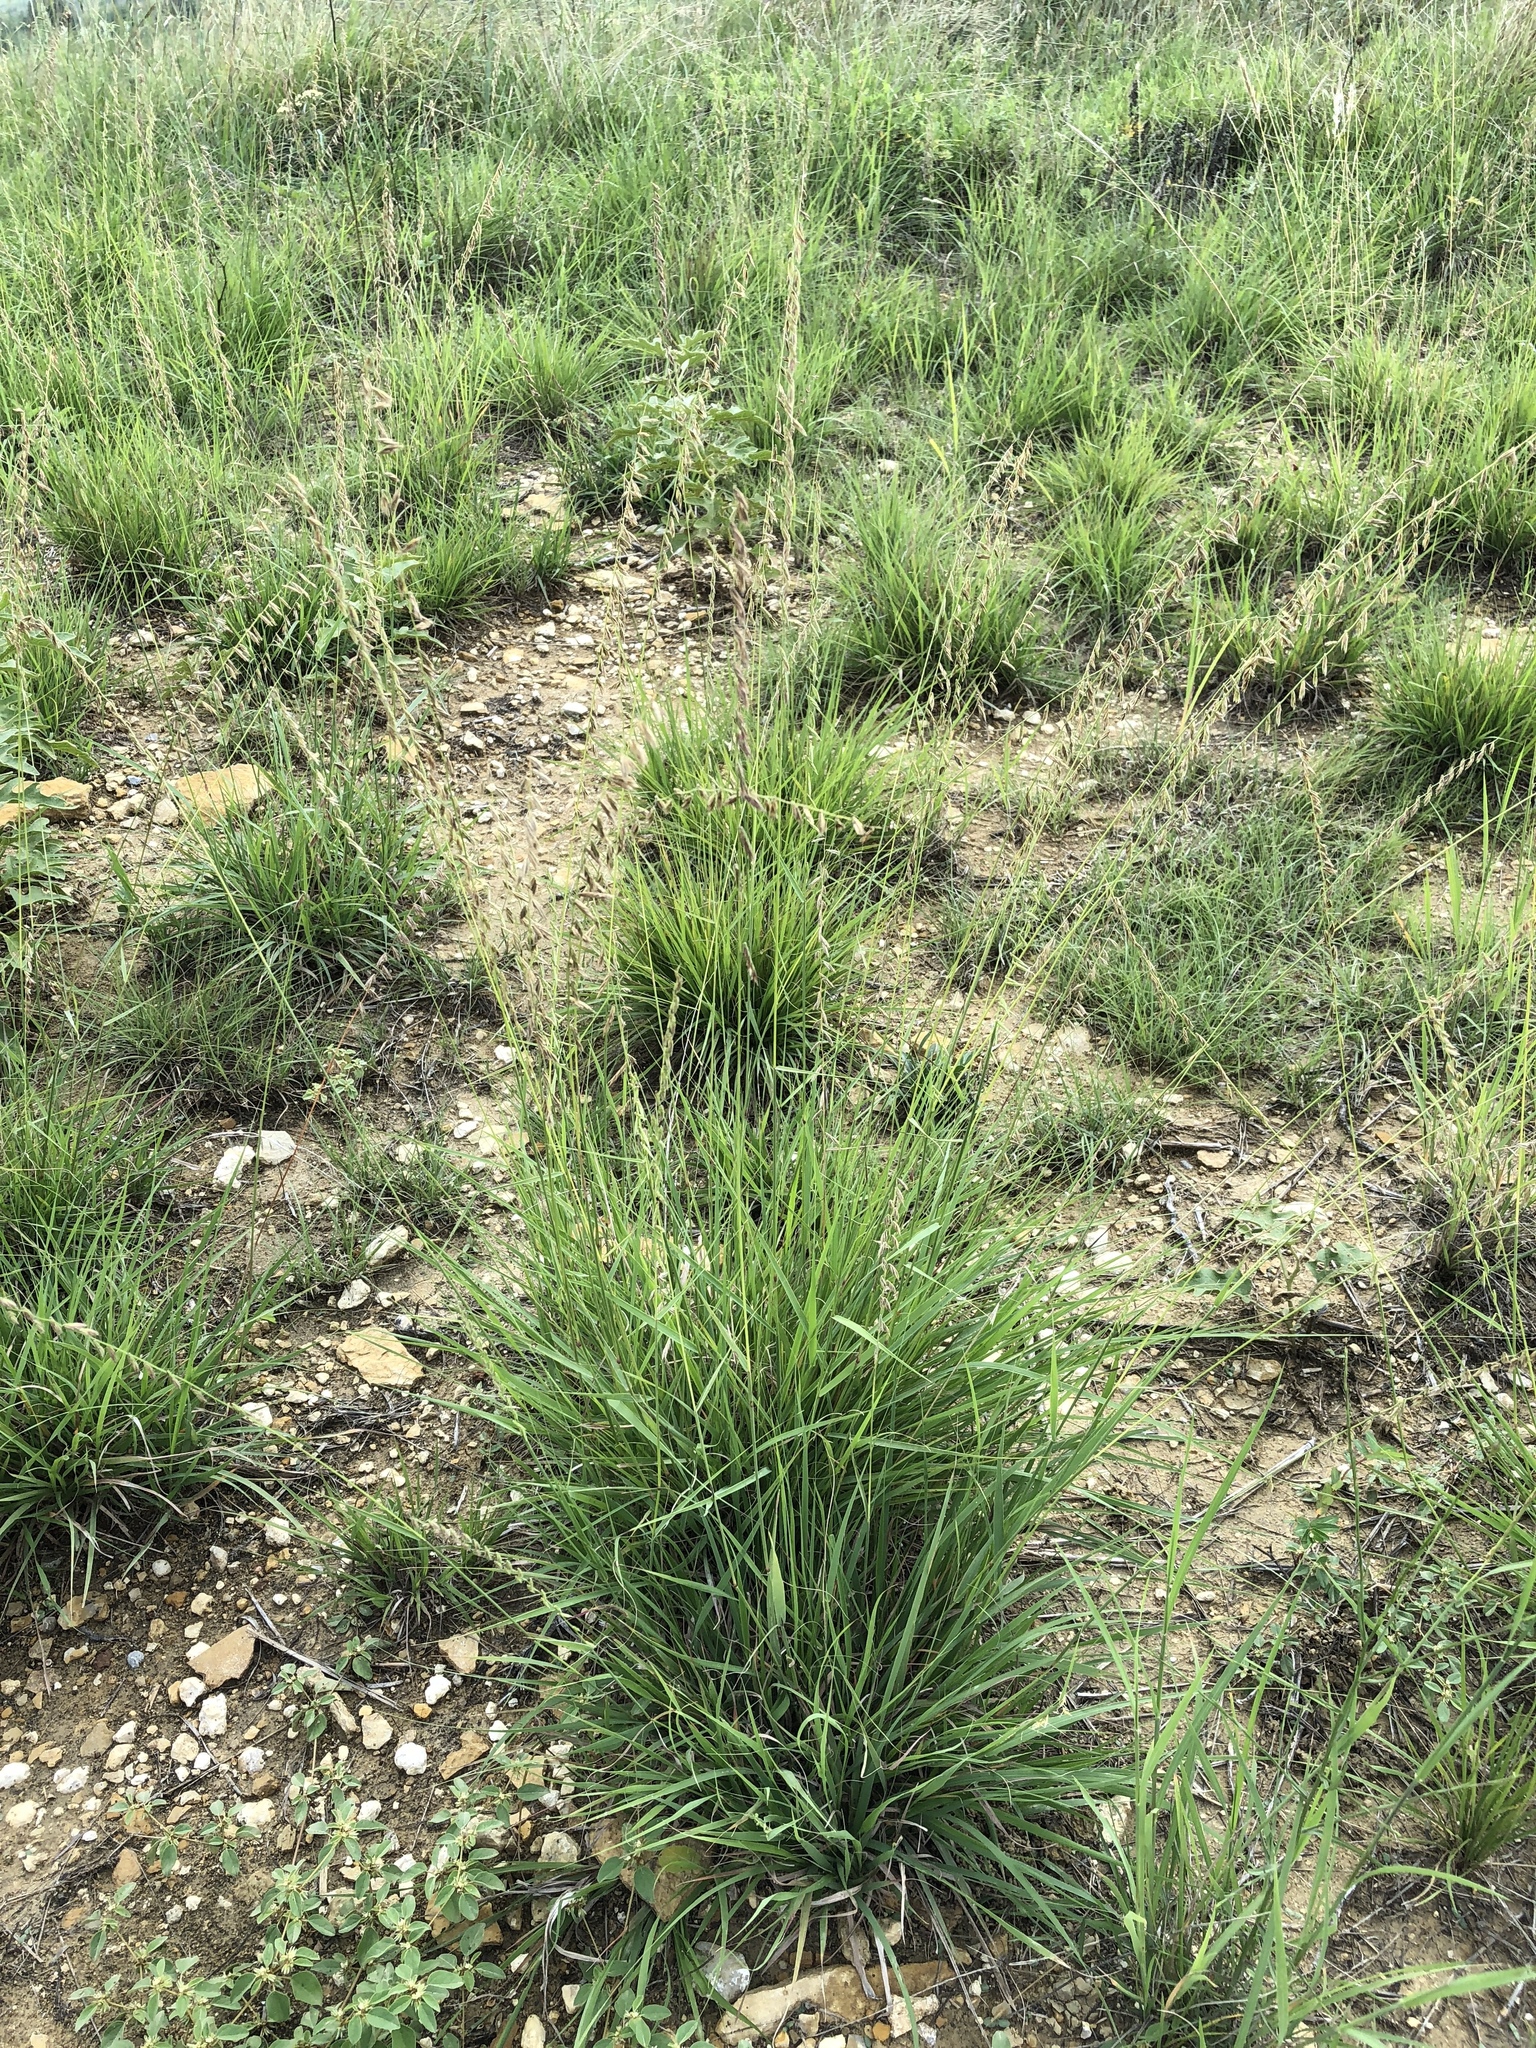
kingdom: Plantae
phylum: Tracheophyta
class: Liliopsida
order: Poales
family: Poaceae
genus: Bouteloua
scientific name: Bouteloua curtipendula
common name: Side-oats grama
